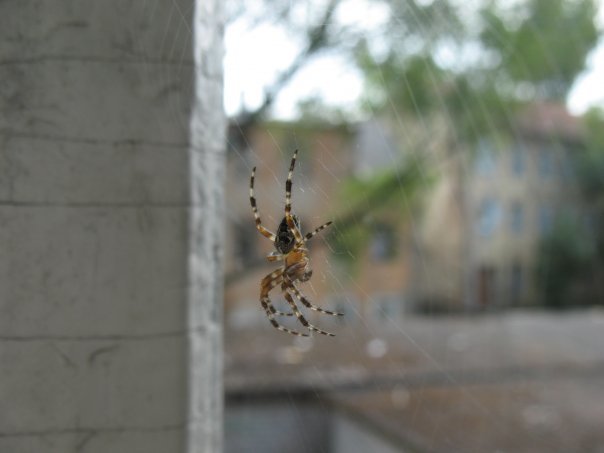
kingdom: Animalia
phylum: Arthropoda
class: Arachnida
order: Araneae
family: Araneidae
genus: Araneus
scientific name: Araneus diadematus
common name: Cross orbweaver
